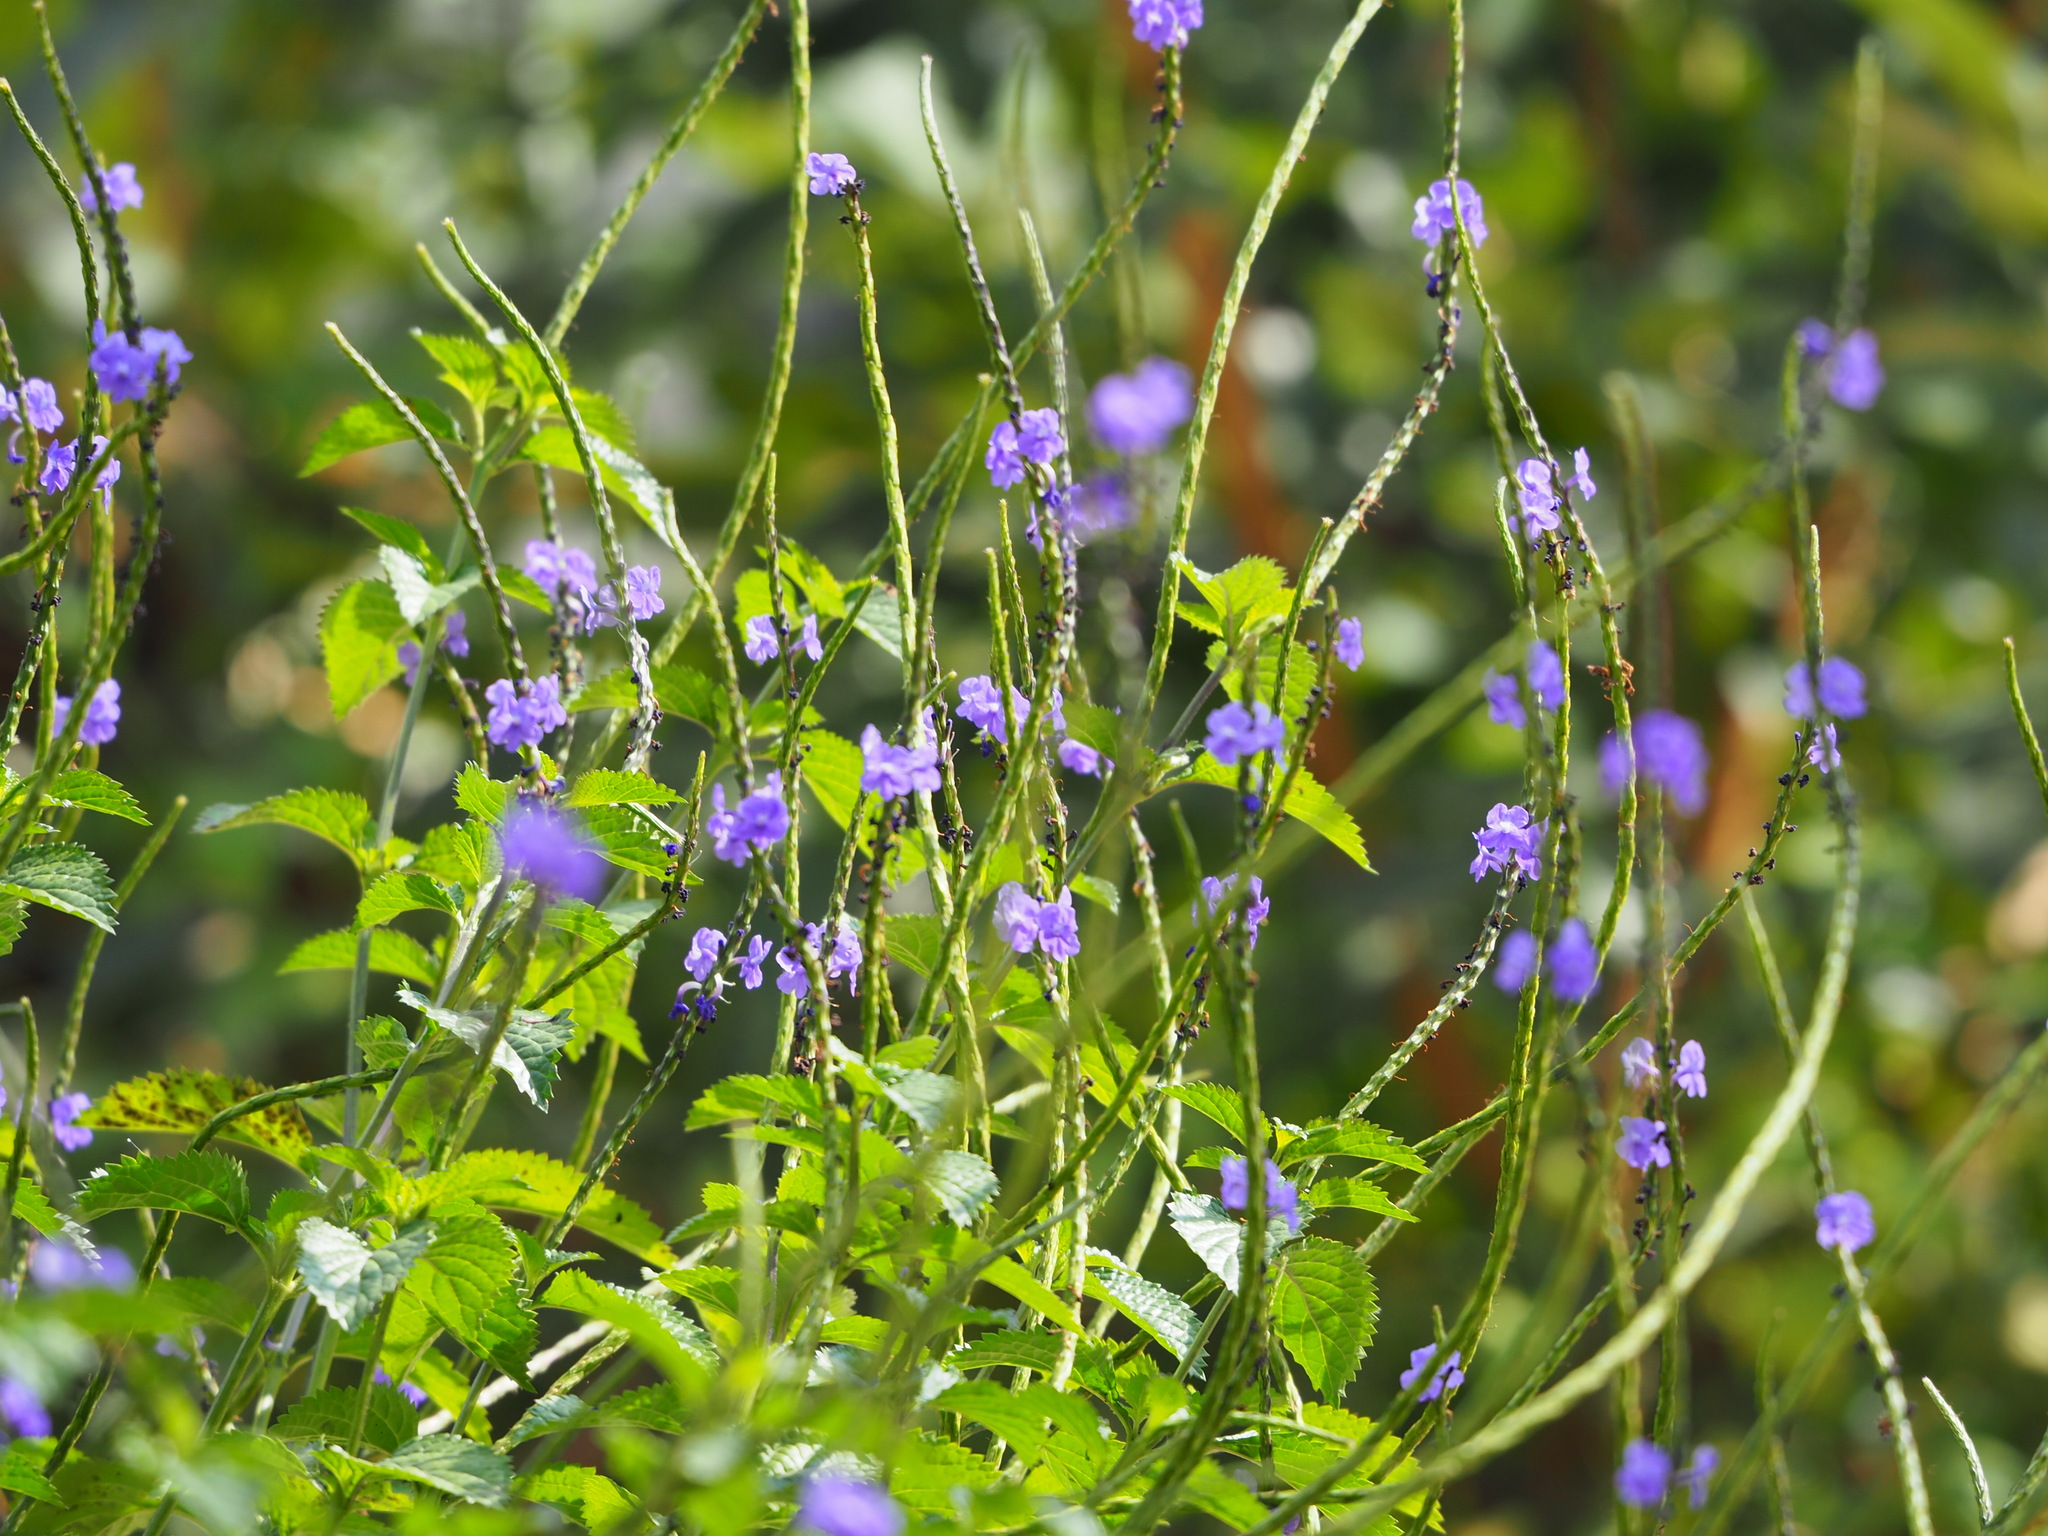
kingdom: Plantae
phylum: Tracheophyta
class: Magnoliopsida
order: Lamiales
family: Verbenaceae
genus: Stachytarpheta
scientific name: Stachytarpheta urticifolia
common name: Nettleleaf velvetberry
